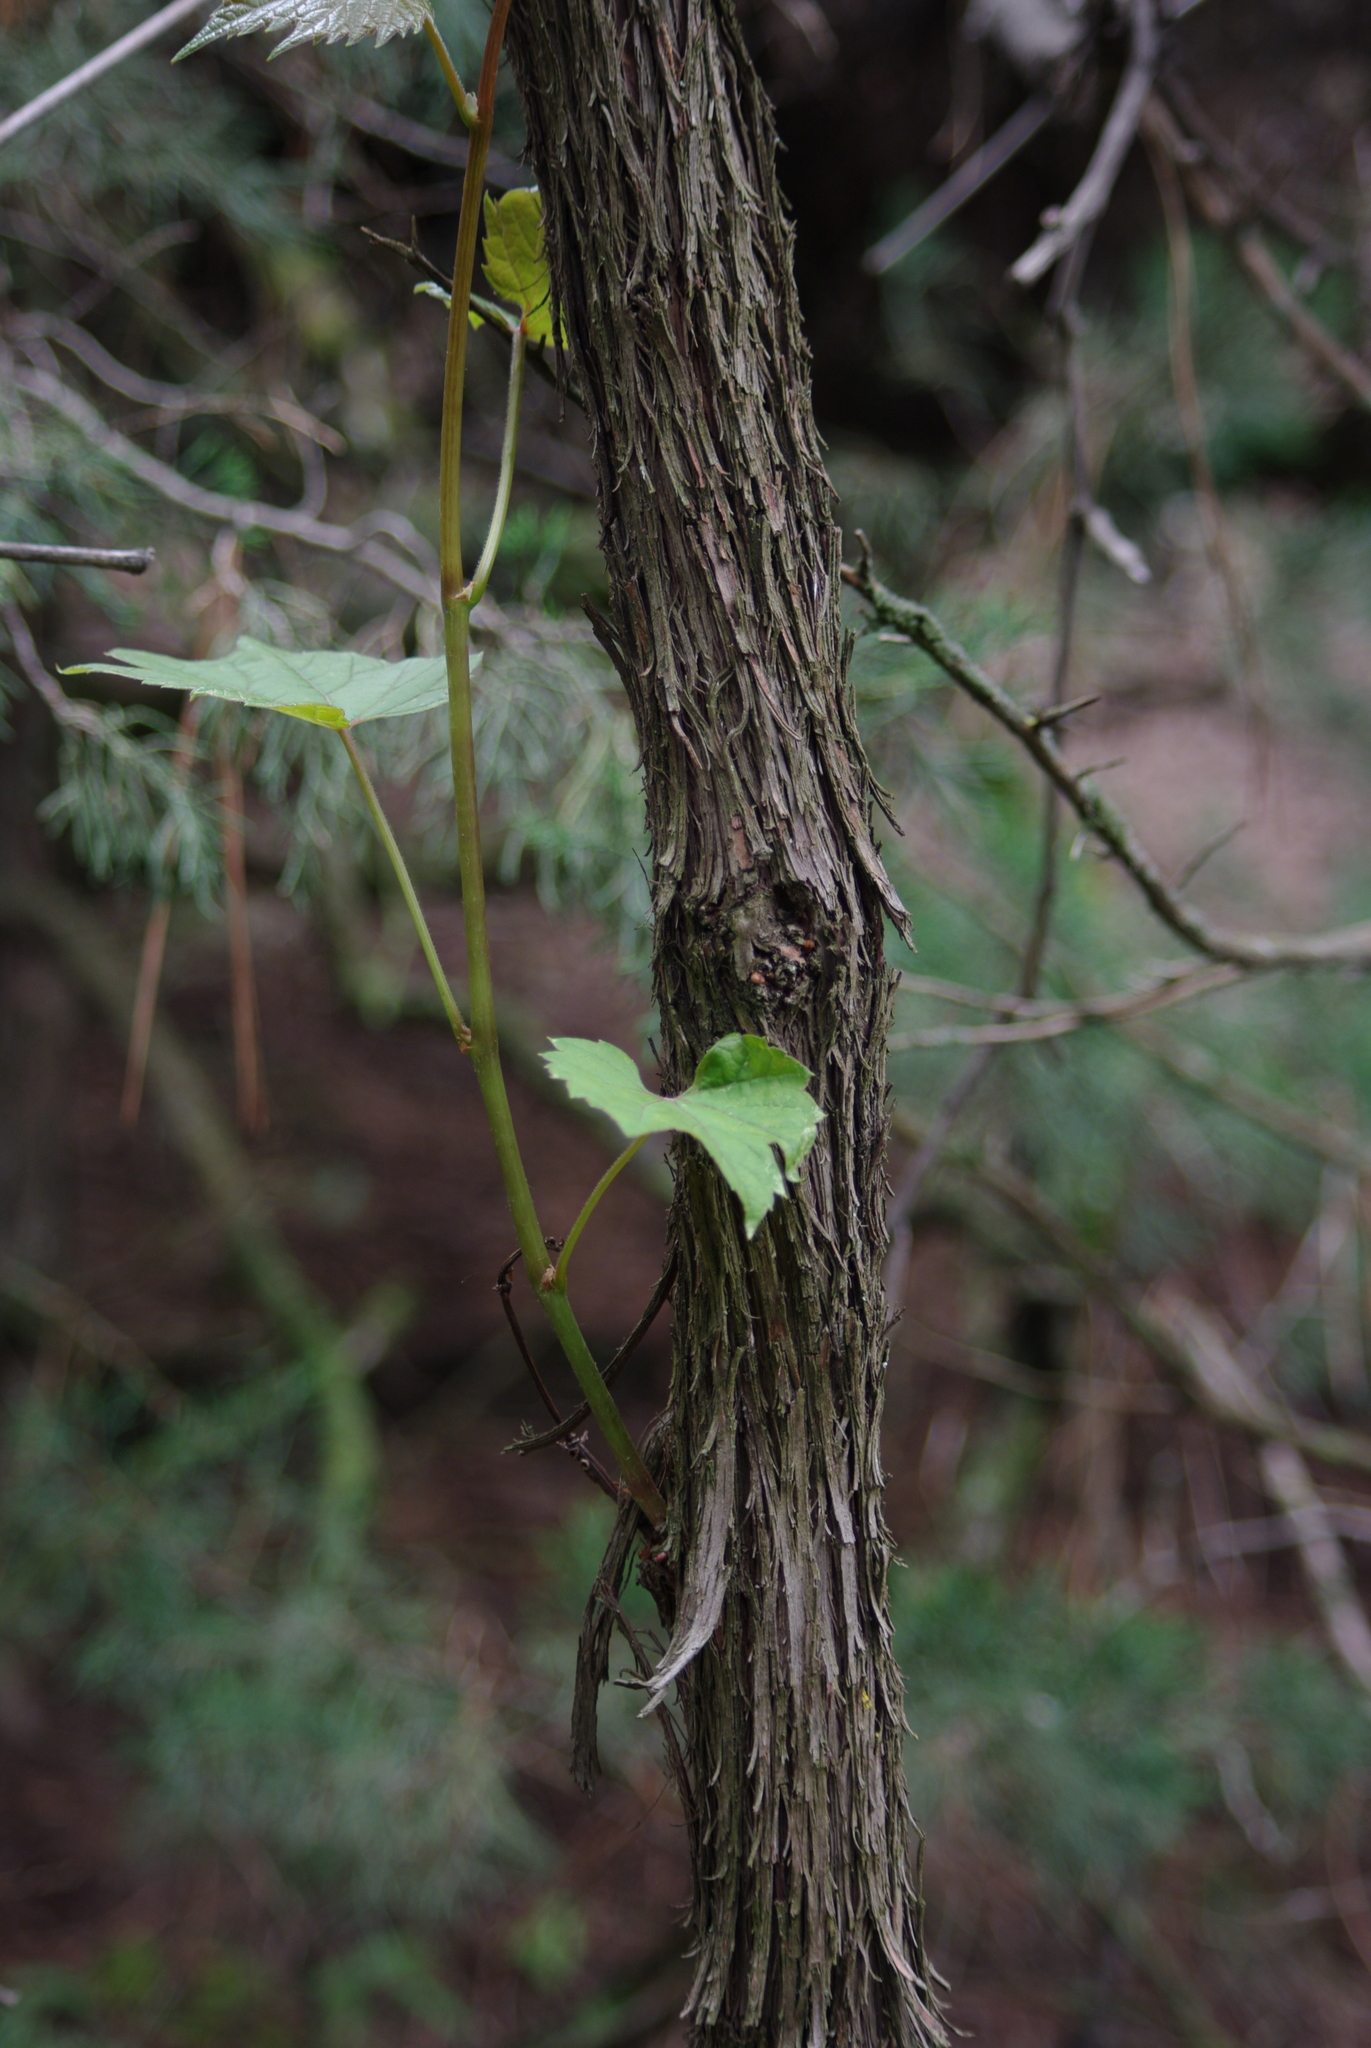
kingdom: Plantae
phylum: Tracheophyta
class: Magnoliopsida
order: Vitales
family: Vitaceae
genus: Vitis
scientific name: Vitis riparia
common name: Frost grape
